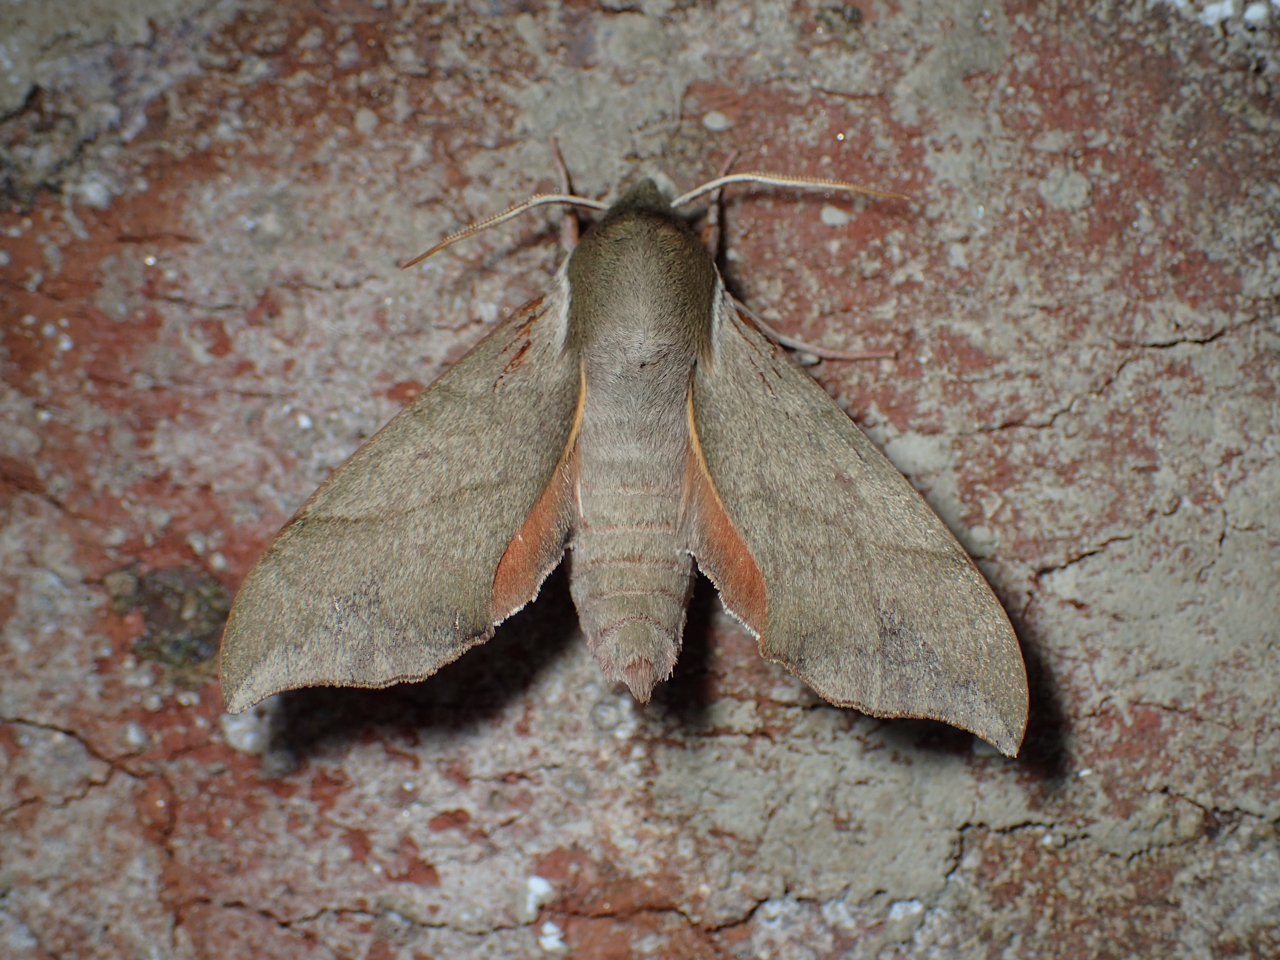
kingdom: Animalia
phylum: Arthropoda
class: Insecta
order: Lepidoptera
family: Sphingidae
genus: Darapsa
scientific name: Darapsa myron
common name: Hog sphinx
